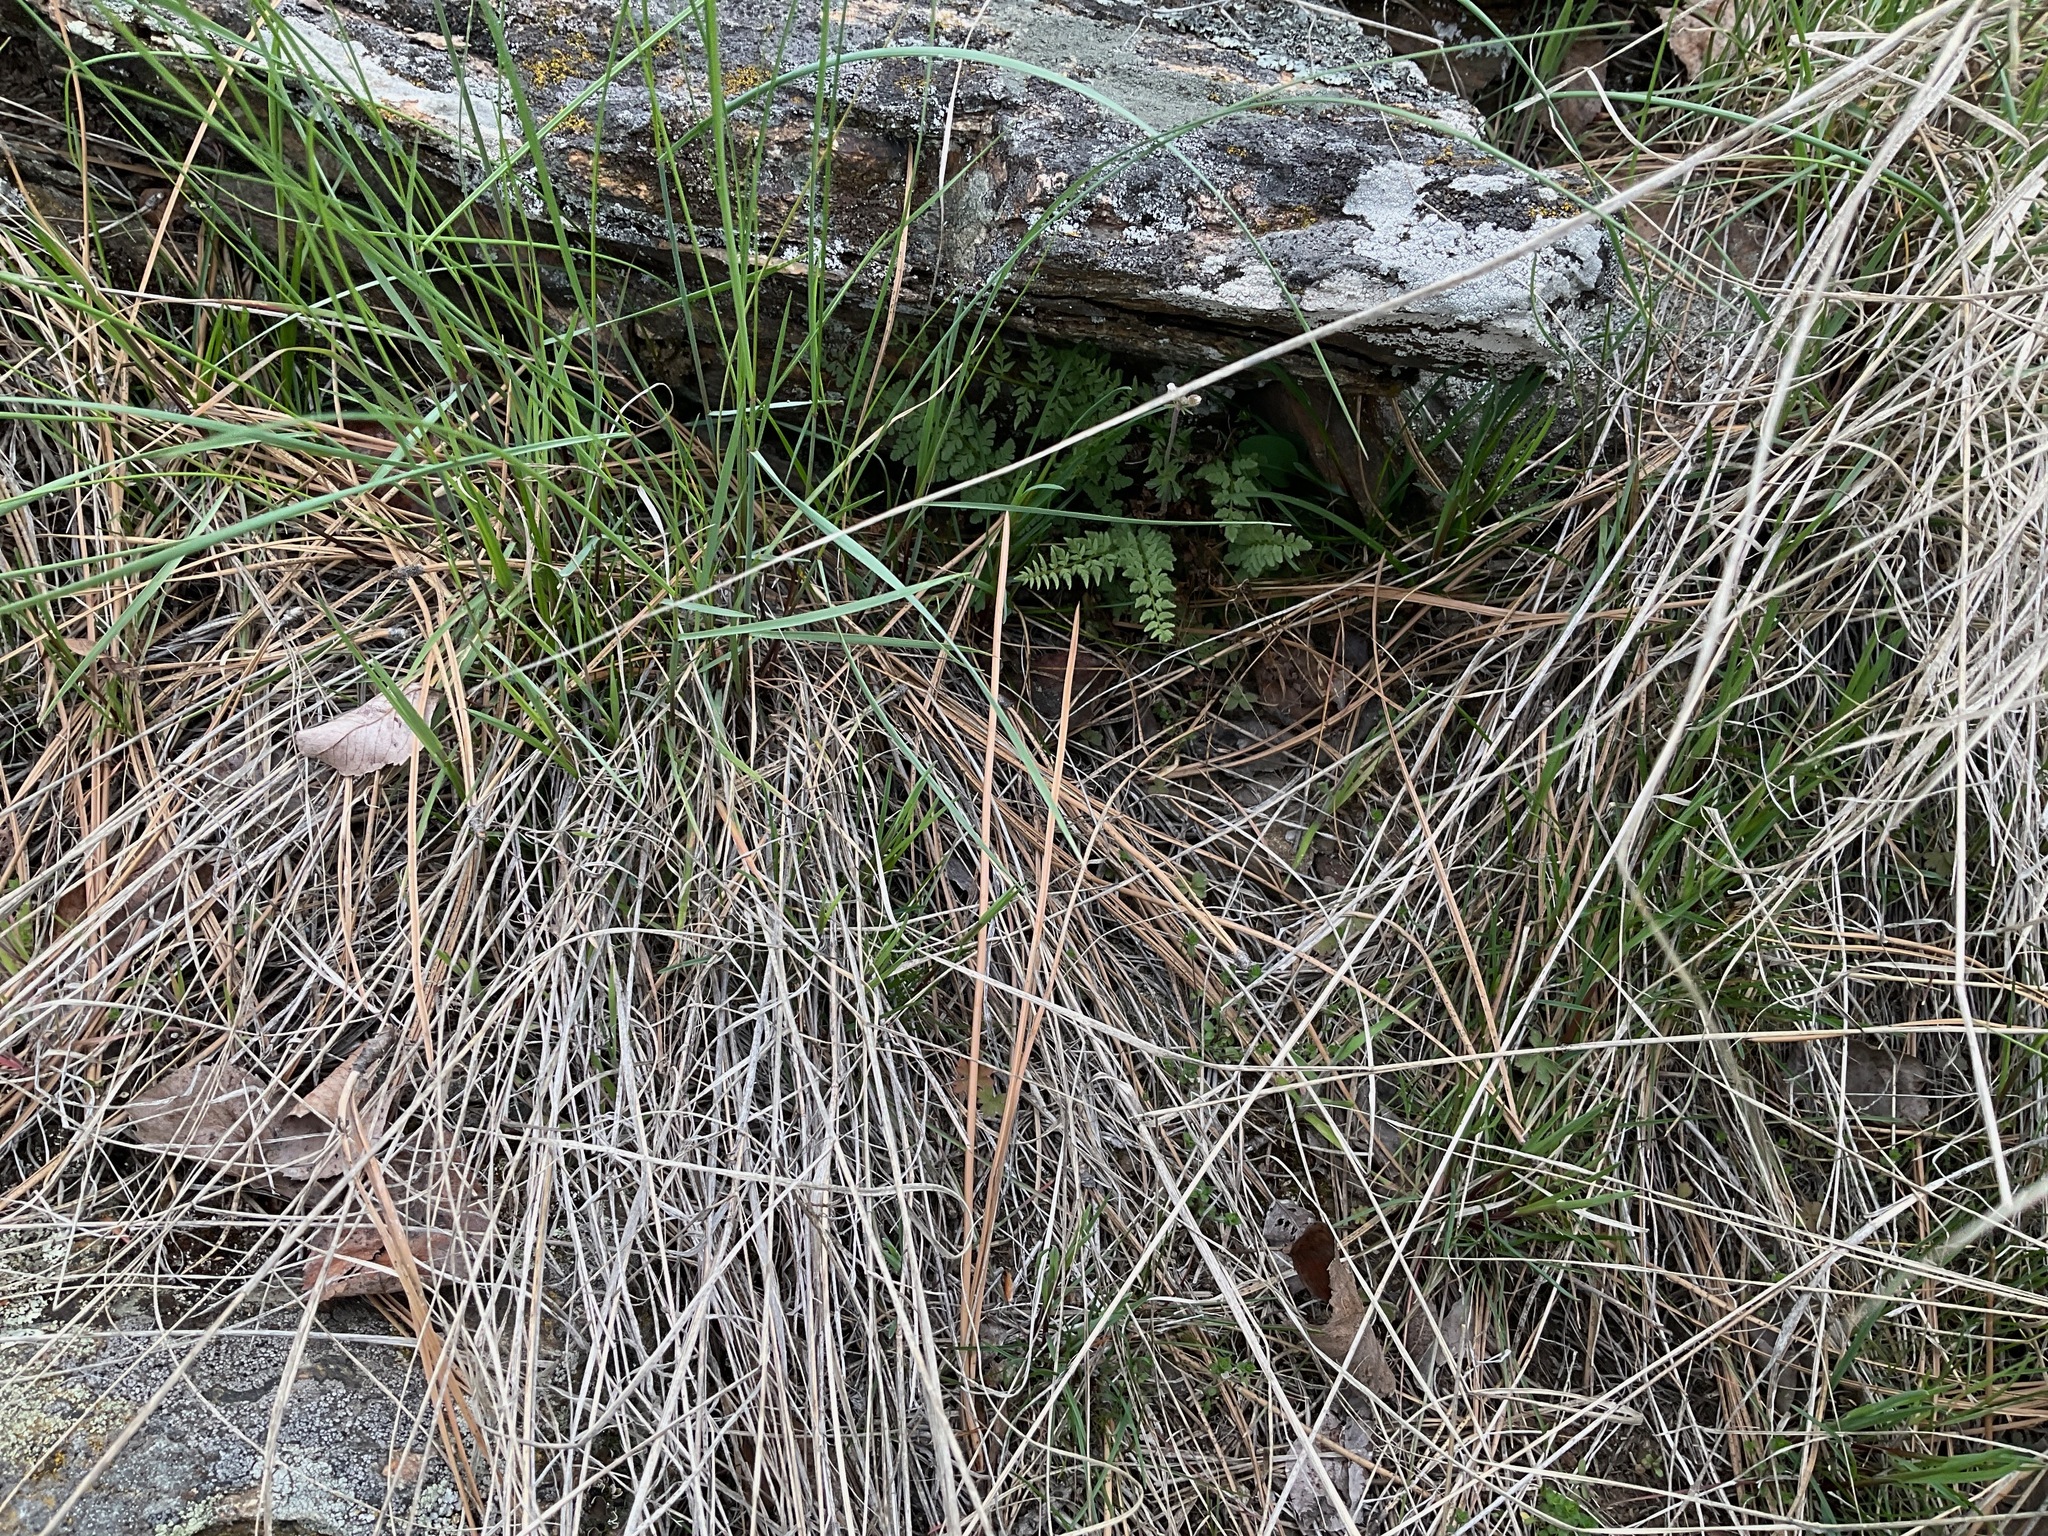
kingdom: Plantae
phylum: Tracheophyta
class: Polypodiopsida
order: Polypodiales
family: Woodsiaceae
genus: Physematium
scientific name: Physematium oreganum
